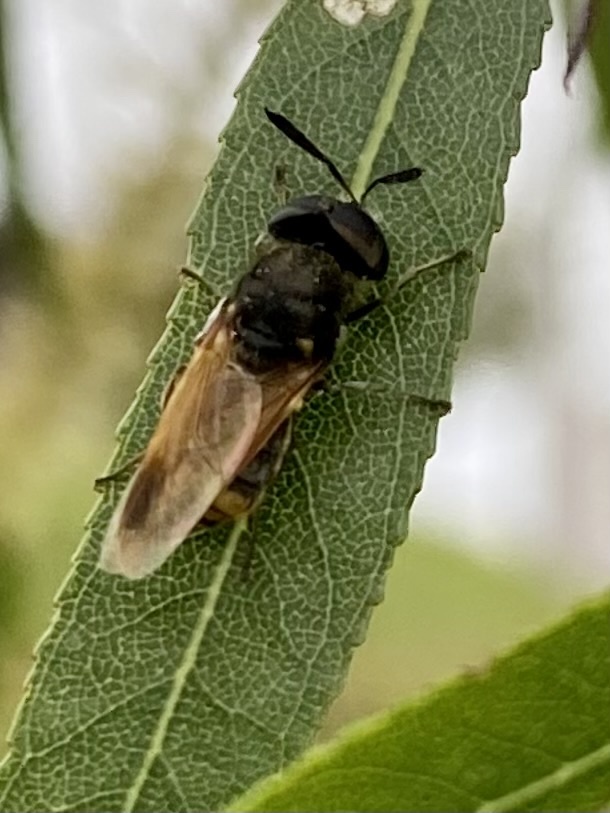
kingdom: Animalia
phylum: Arthropoda
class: Insecta
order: Diptera
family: Stratiomyidae
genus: Hoplitimyia
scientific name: Hoplitimyia mutabilis
